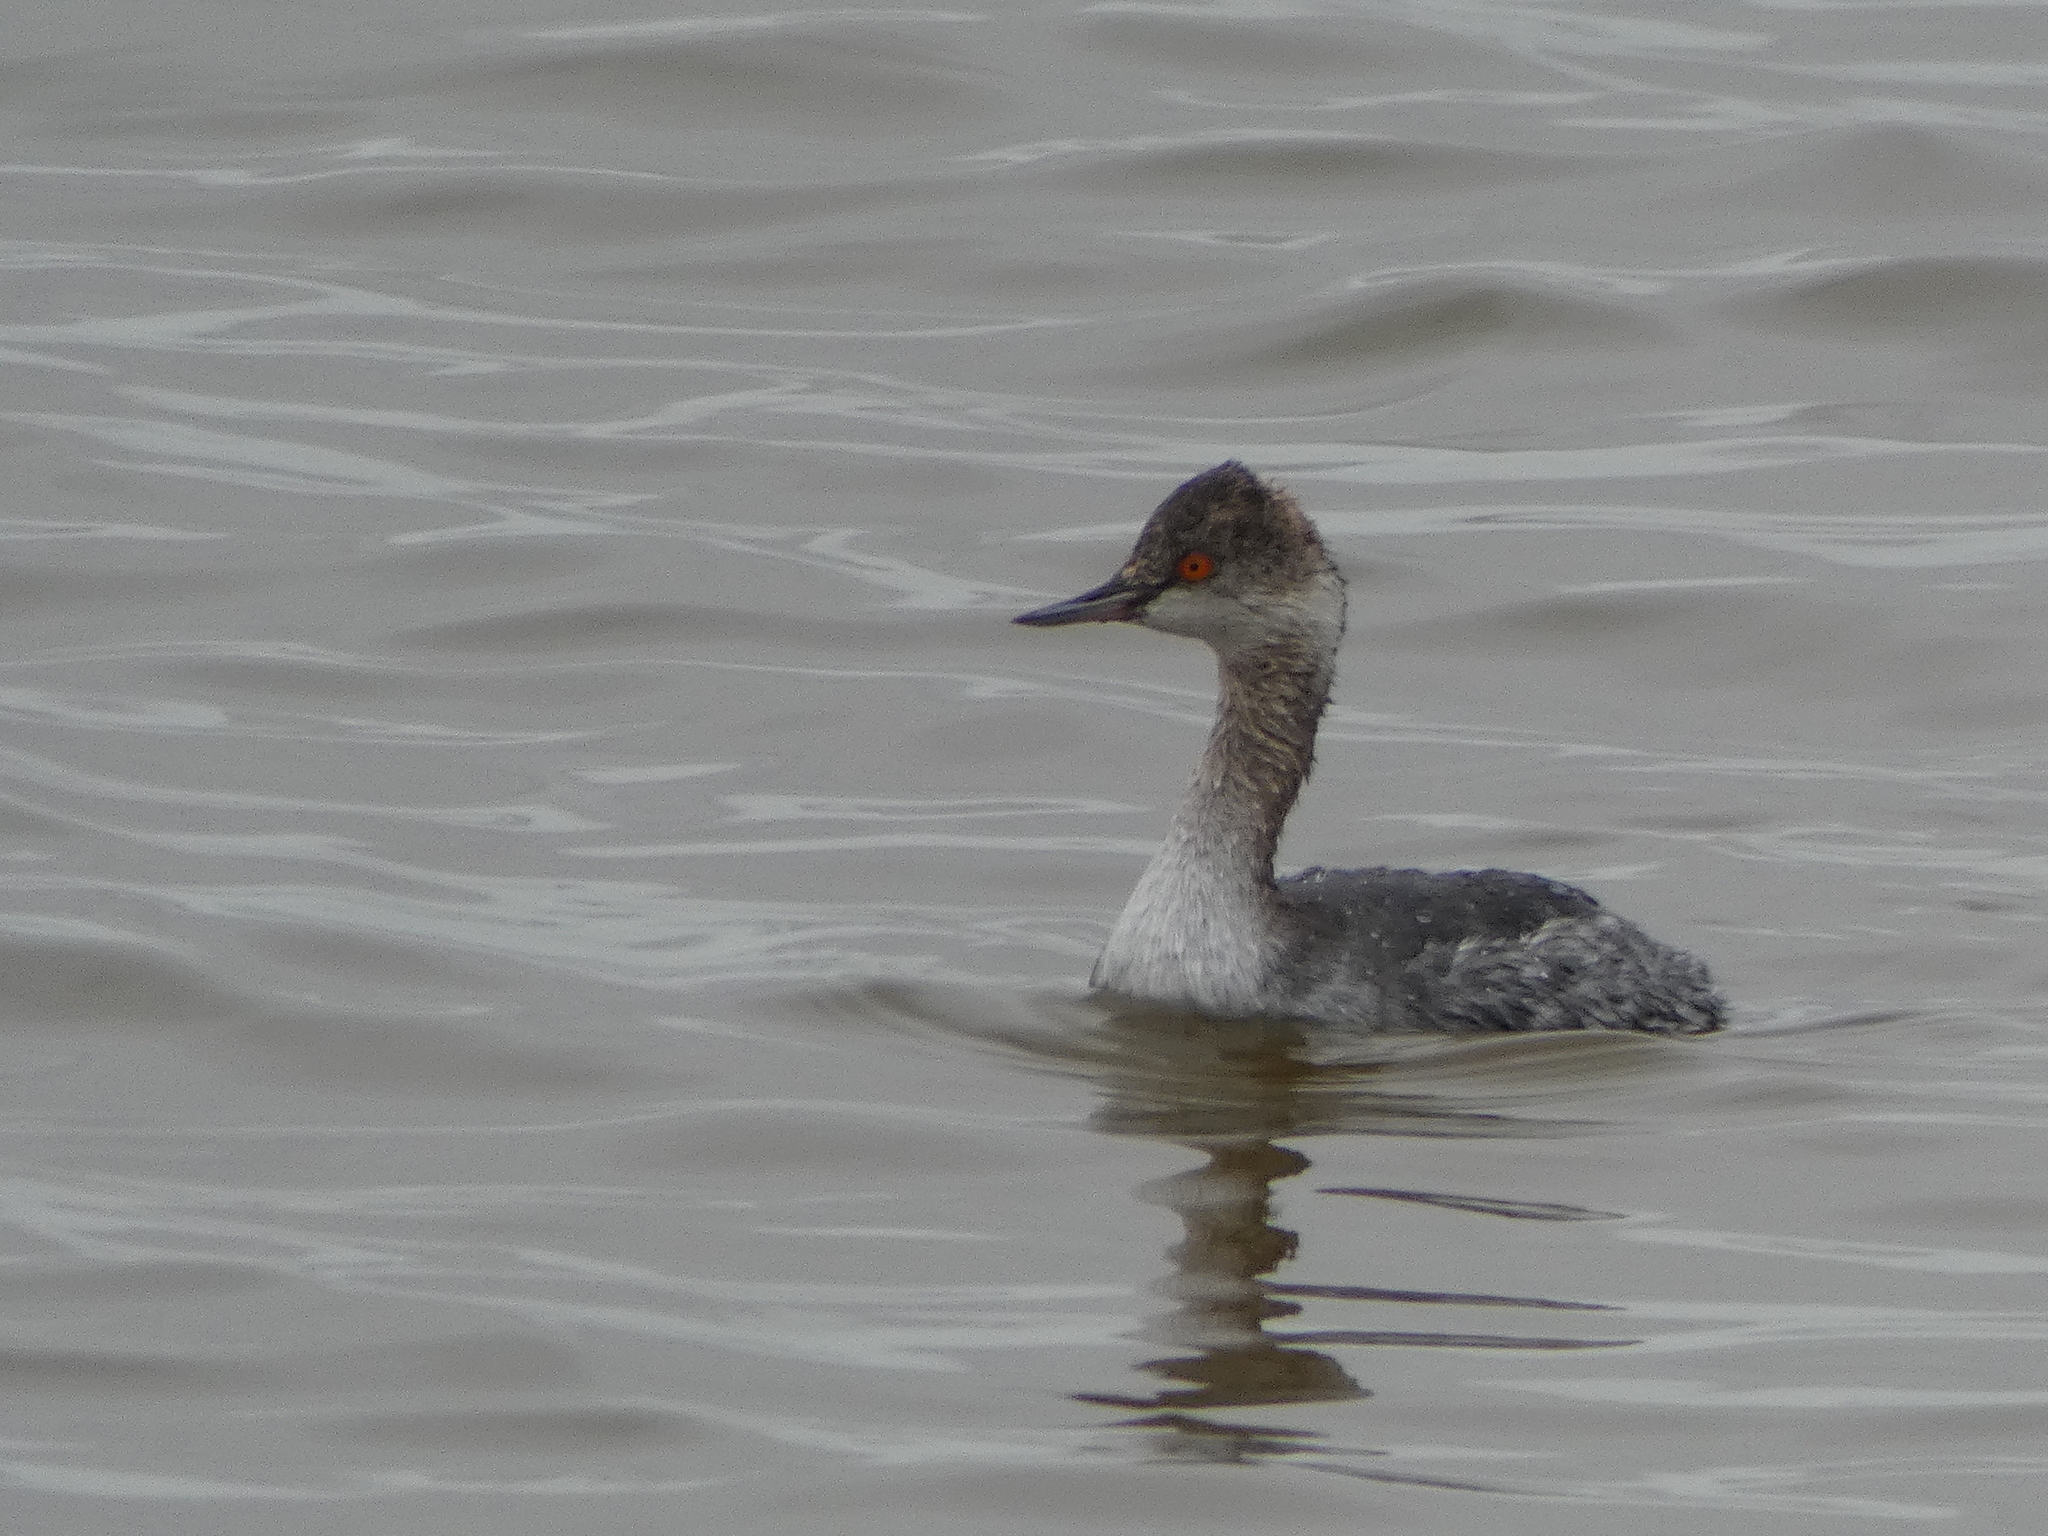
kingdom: Animalia
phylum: Chordata
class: Aves
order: Podicipediformes
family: Podicipedidae
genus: Podiceps
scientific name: Podiceps nigricollis
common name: Black-necked grebe
